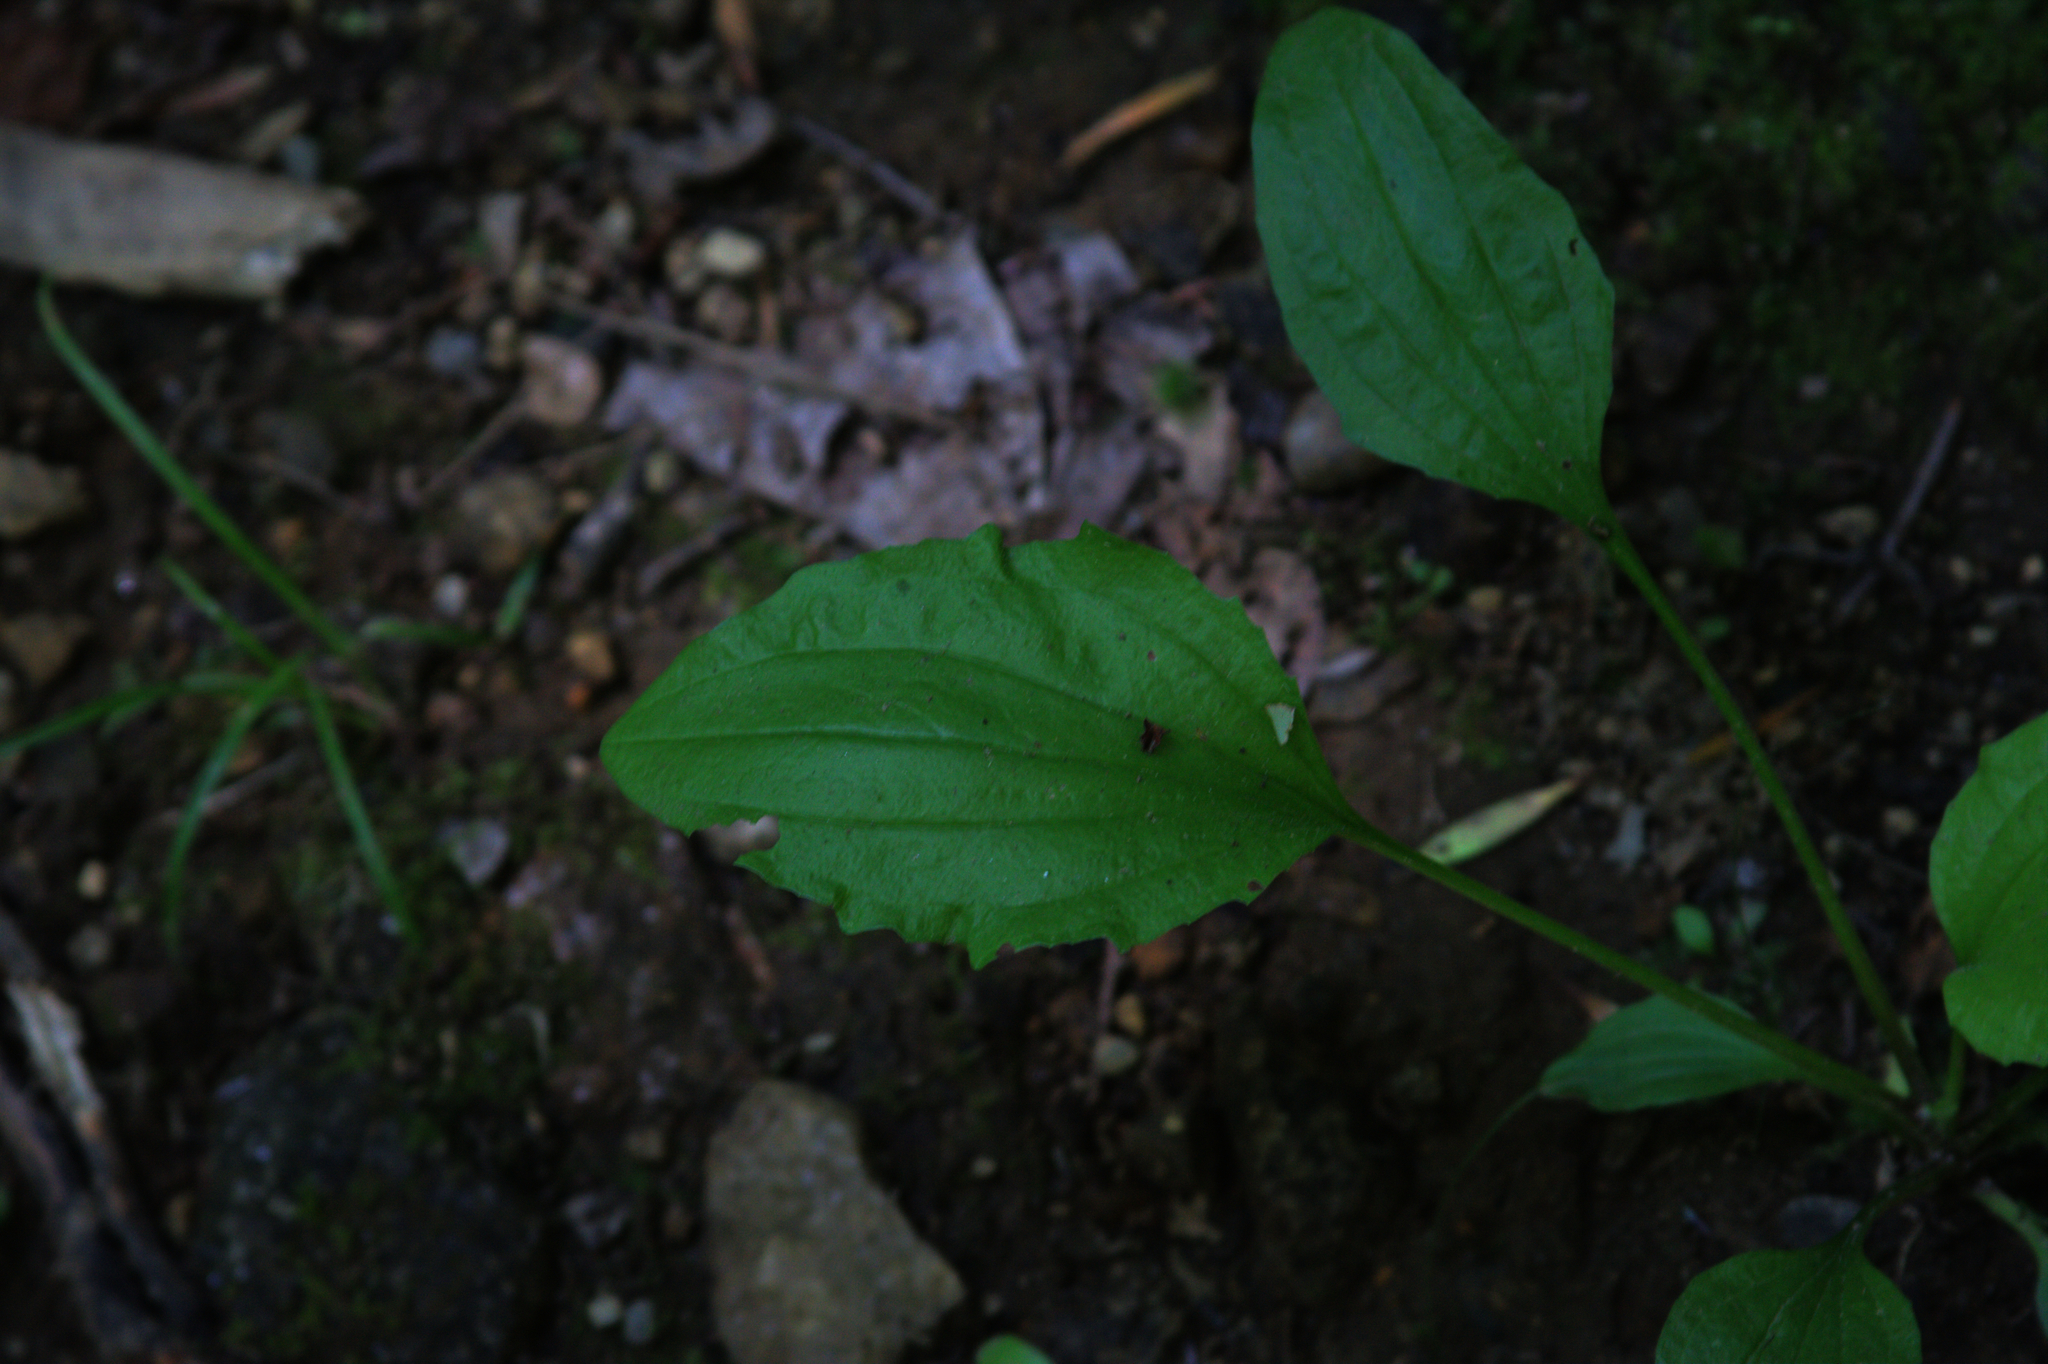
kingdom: Plantae
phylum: Tracheophyta
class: Magnoliopsida
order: Lamiales
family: Plantaginaceae
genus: Plantago
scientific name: Plantago rugelii
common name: American plantain
